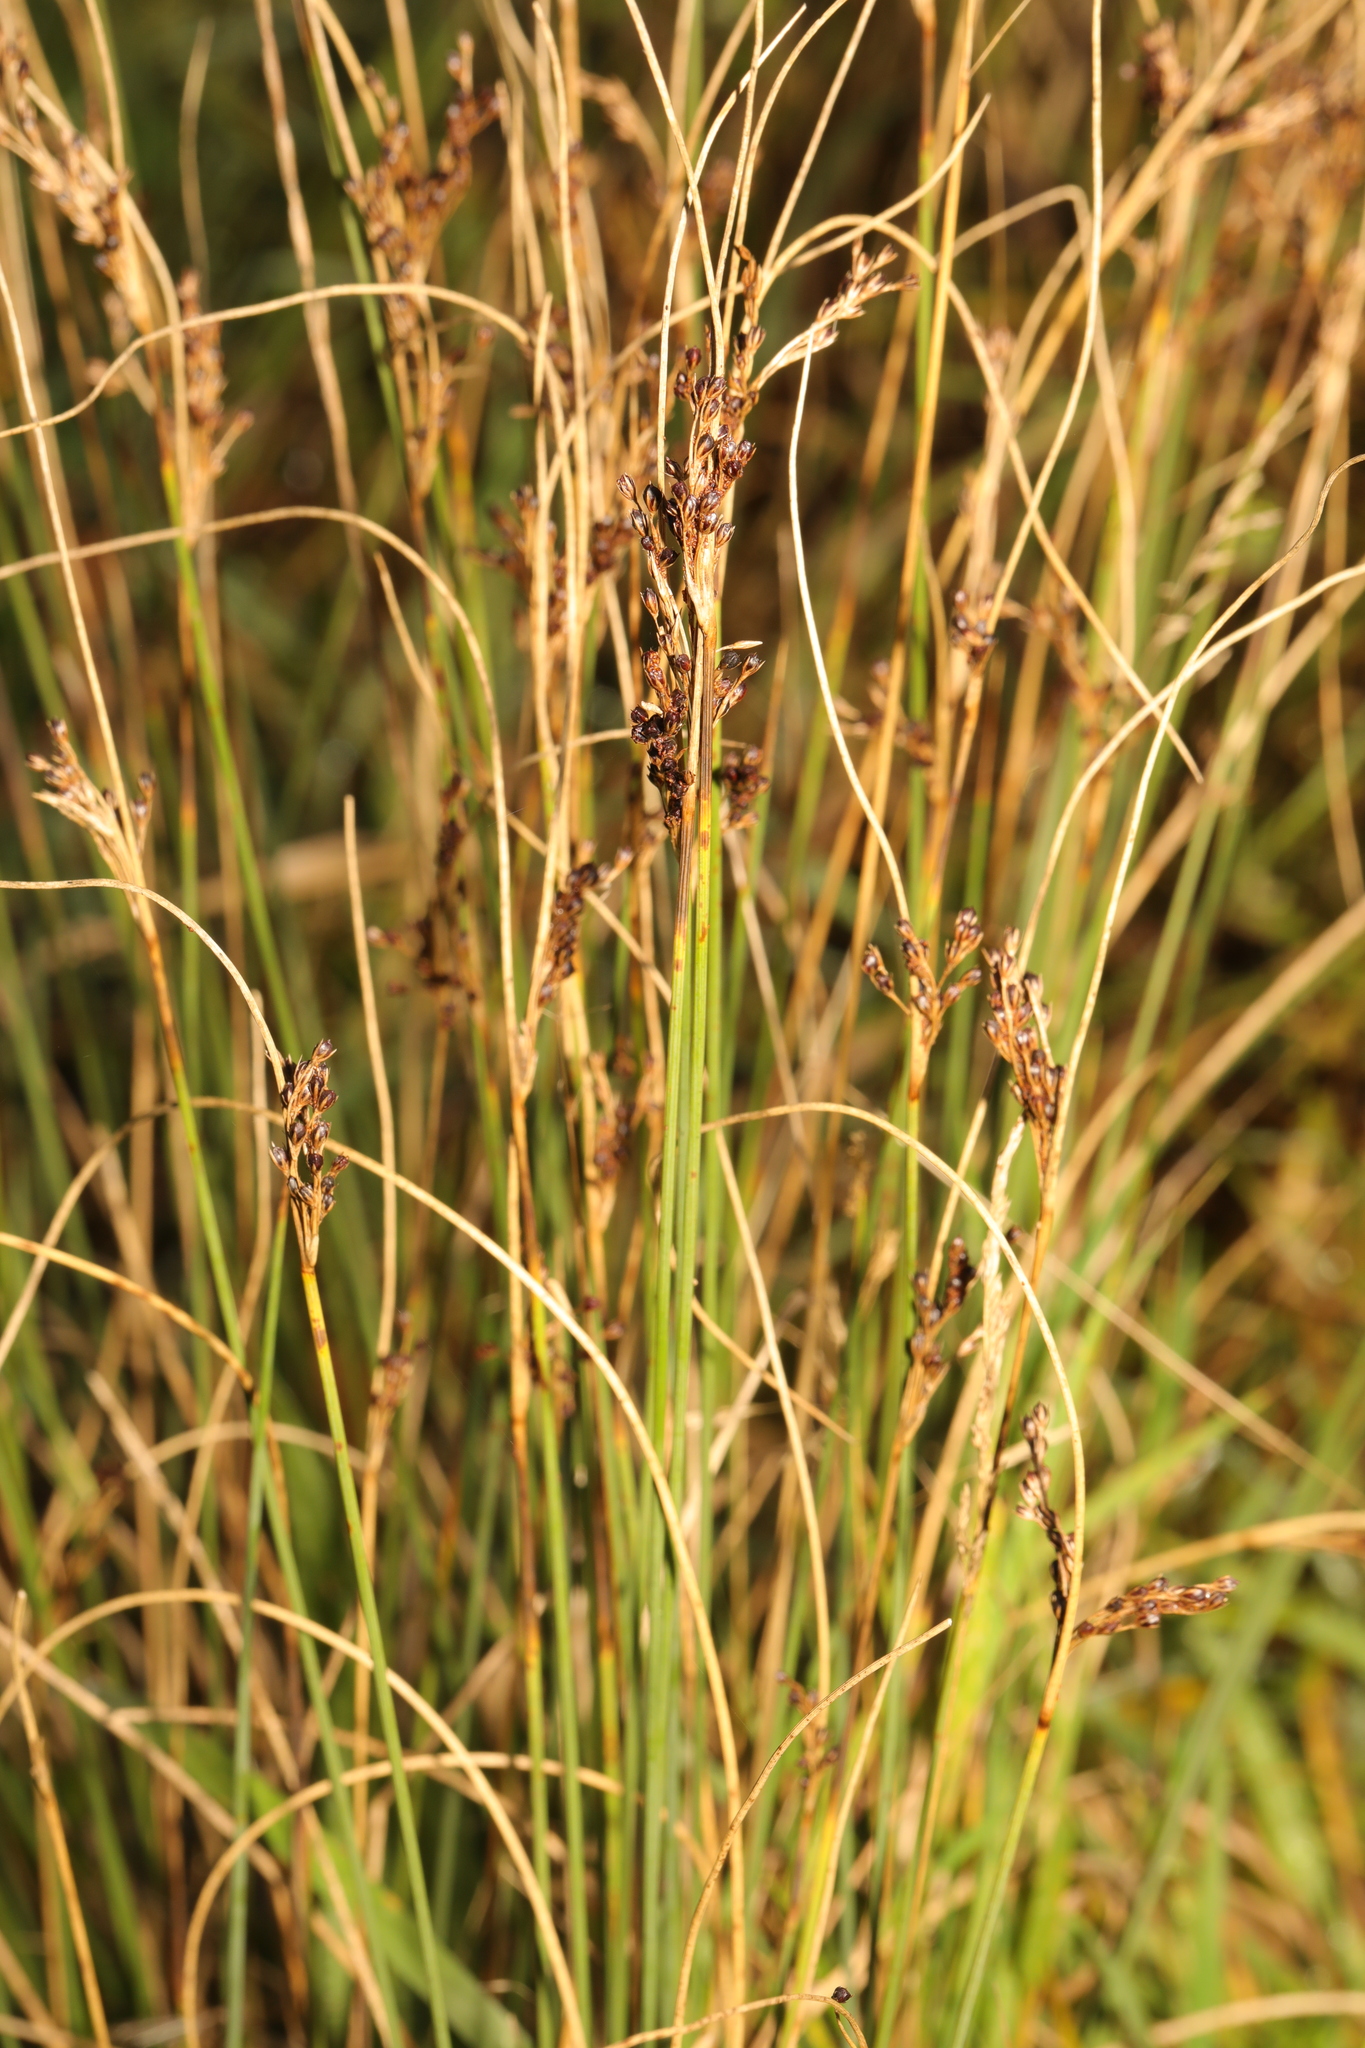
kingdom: Plantae
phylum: Tracheophyta
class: Liliopsida
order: Poales
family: Juncaceae
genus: Juncus
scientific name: Juncus inflexus
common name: Hard rush
